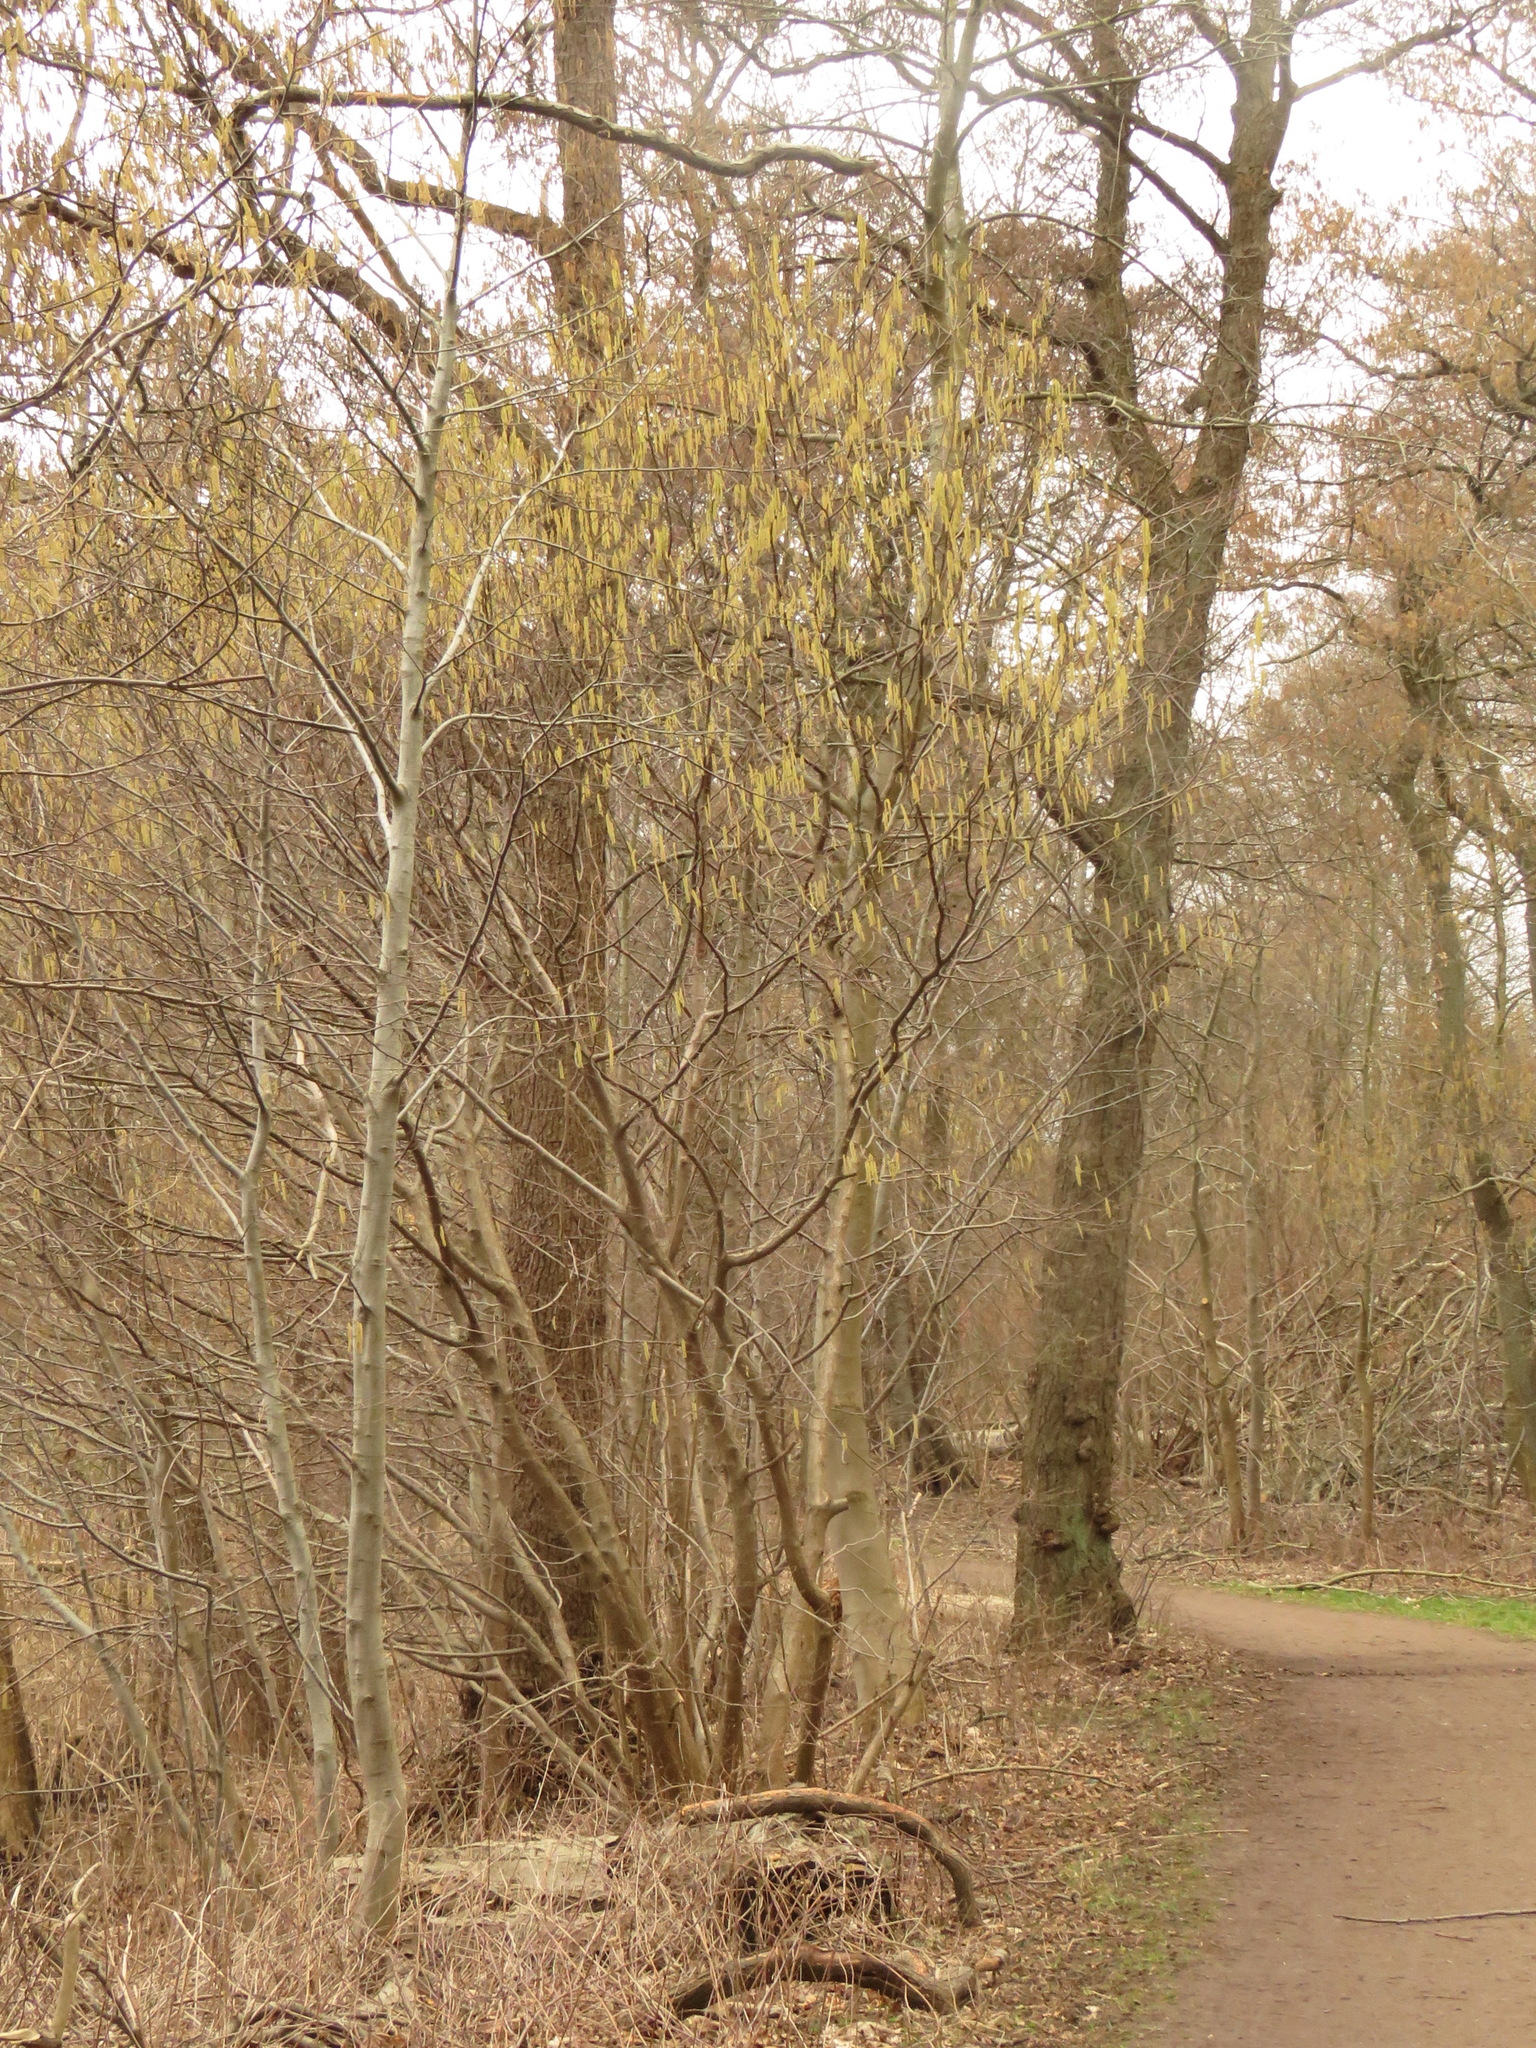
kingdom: Plantae
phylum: Tracheophyta
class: Magnoliopsida
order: Fagales
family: Betulaceae
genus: Corylus
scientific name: Corylus avellana
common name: European hazel
